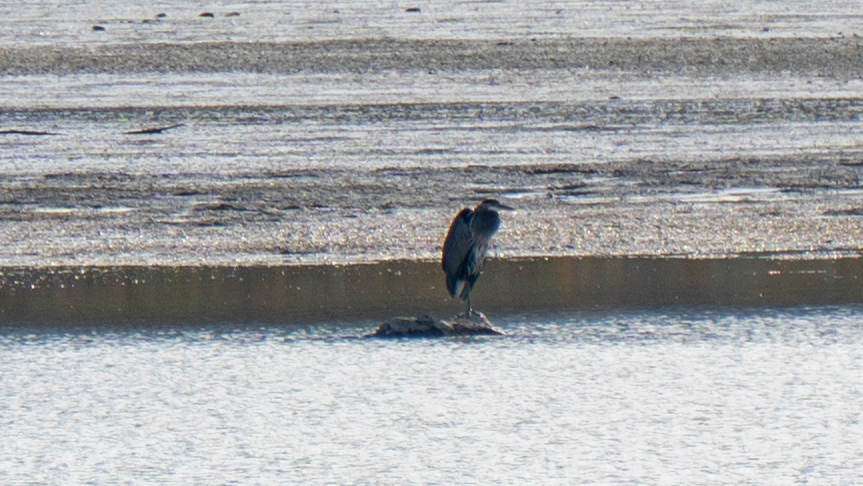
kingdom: Animalia
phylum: Chordata
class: Aves
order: Pelecaniformes
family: Ardeidae
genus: Ardea
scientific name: Ardea herodias
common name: Great blue heron
